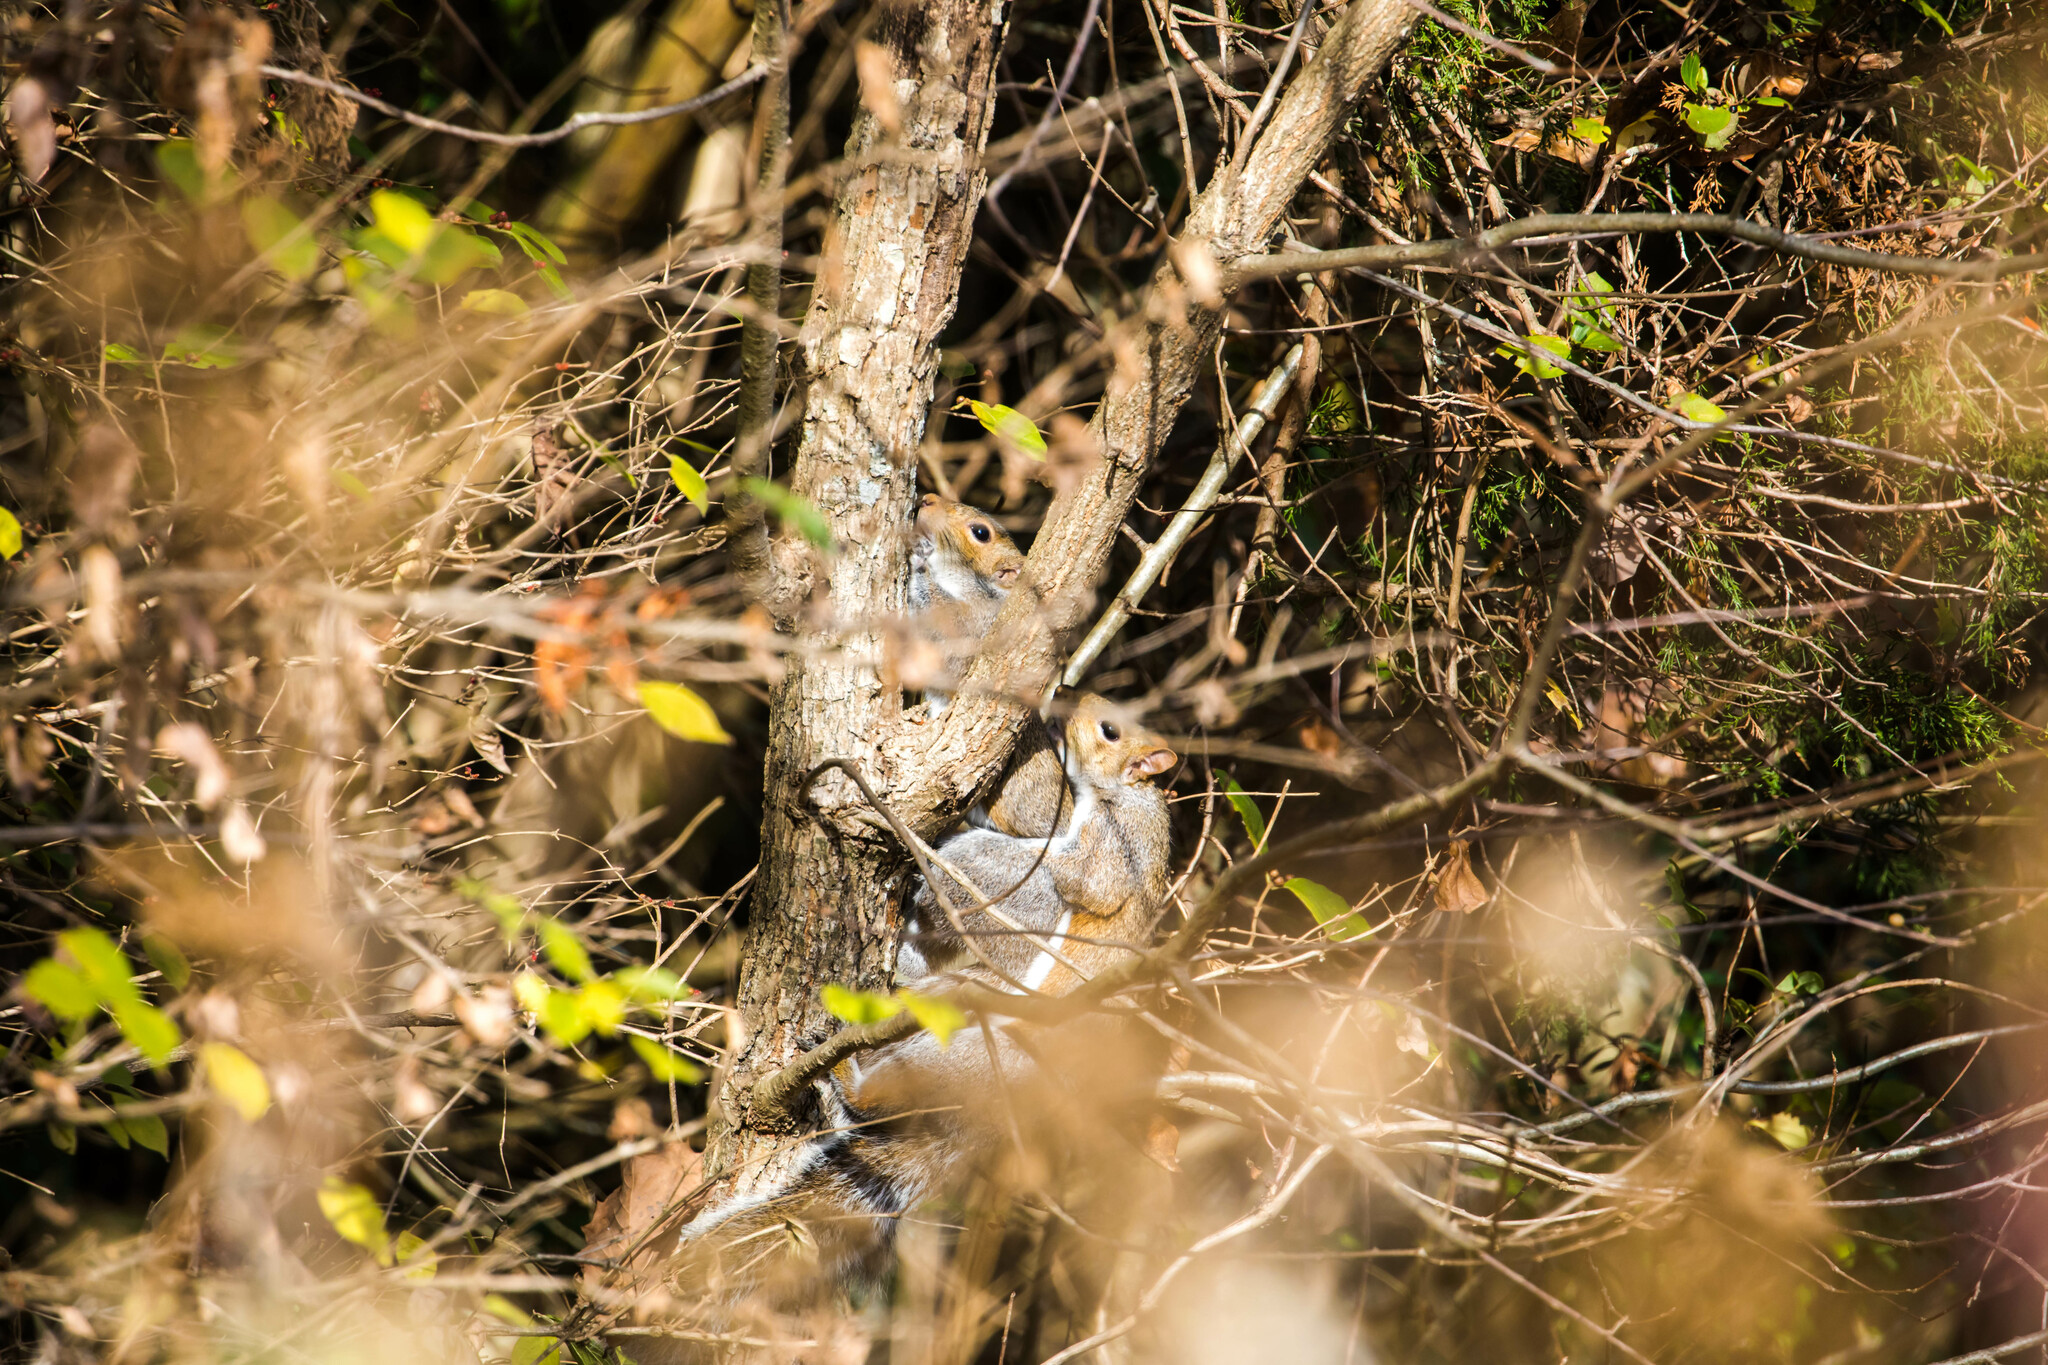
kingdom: Animalia
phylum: Chordata
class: Mammalia
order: Rodentia
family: Sciuridae
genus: Sciurus
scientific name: Sciurus carolinensis
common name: Eastern gray squirrel
